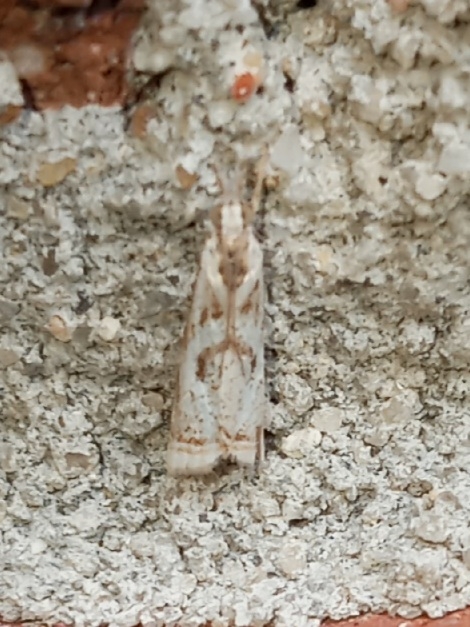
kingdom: Animalia
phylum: Arthropoda
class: Insecta
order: Lepidoptera
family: Crambidae
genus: Microcrambus
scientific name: Microcrambus elegans
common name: Elegant grass-veneer
